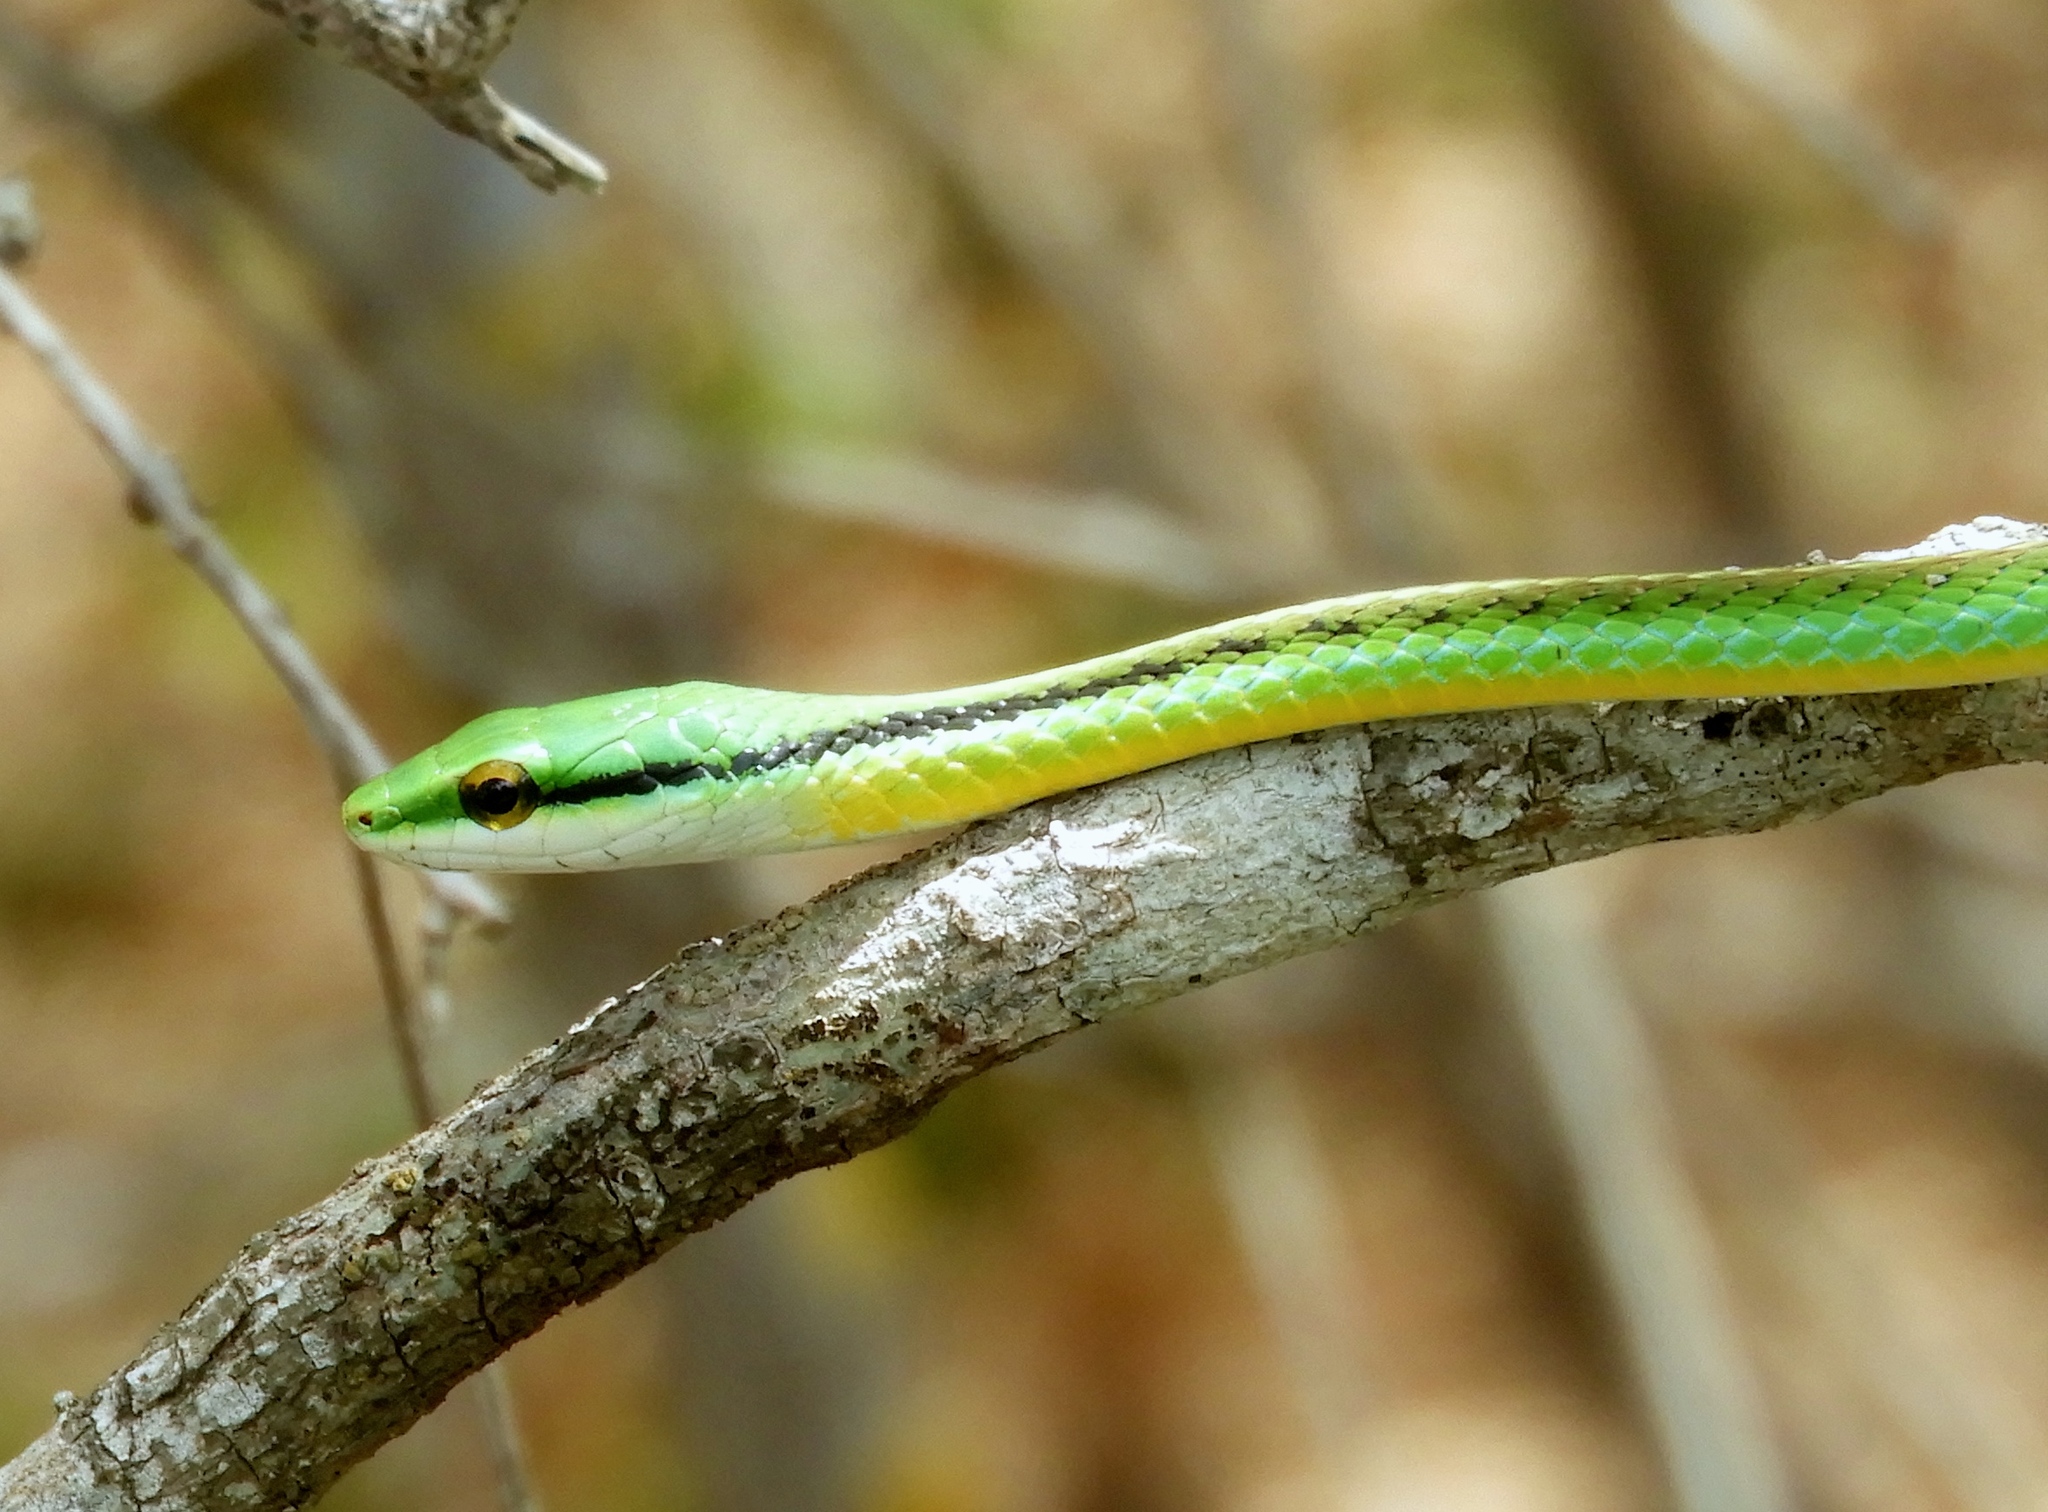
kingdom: Animalia
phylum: Chordata
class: Squamata
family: Colubridae
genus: Leptophis
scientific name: Leptophis diplotropis
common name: Pacific coast parrot snake
